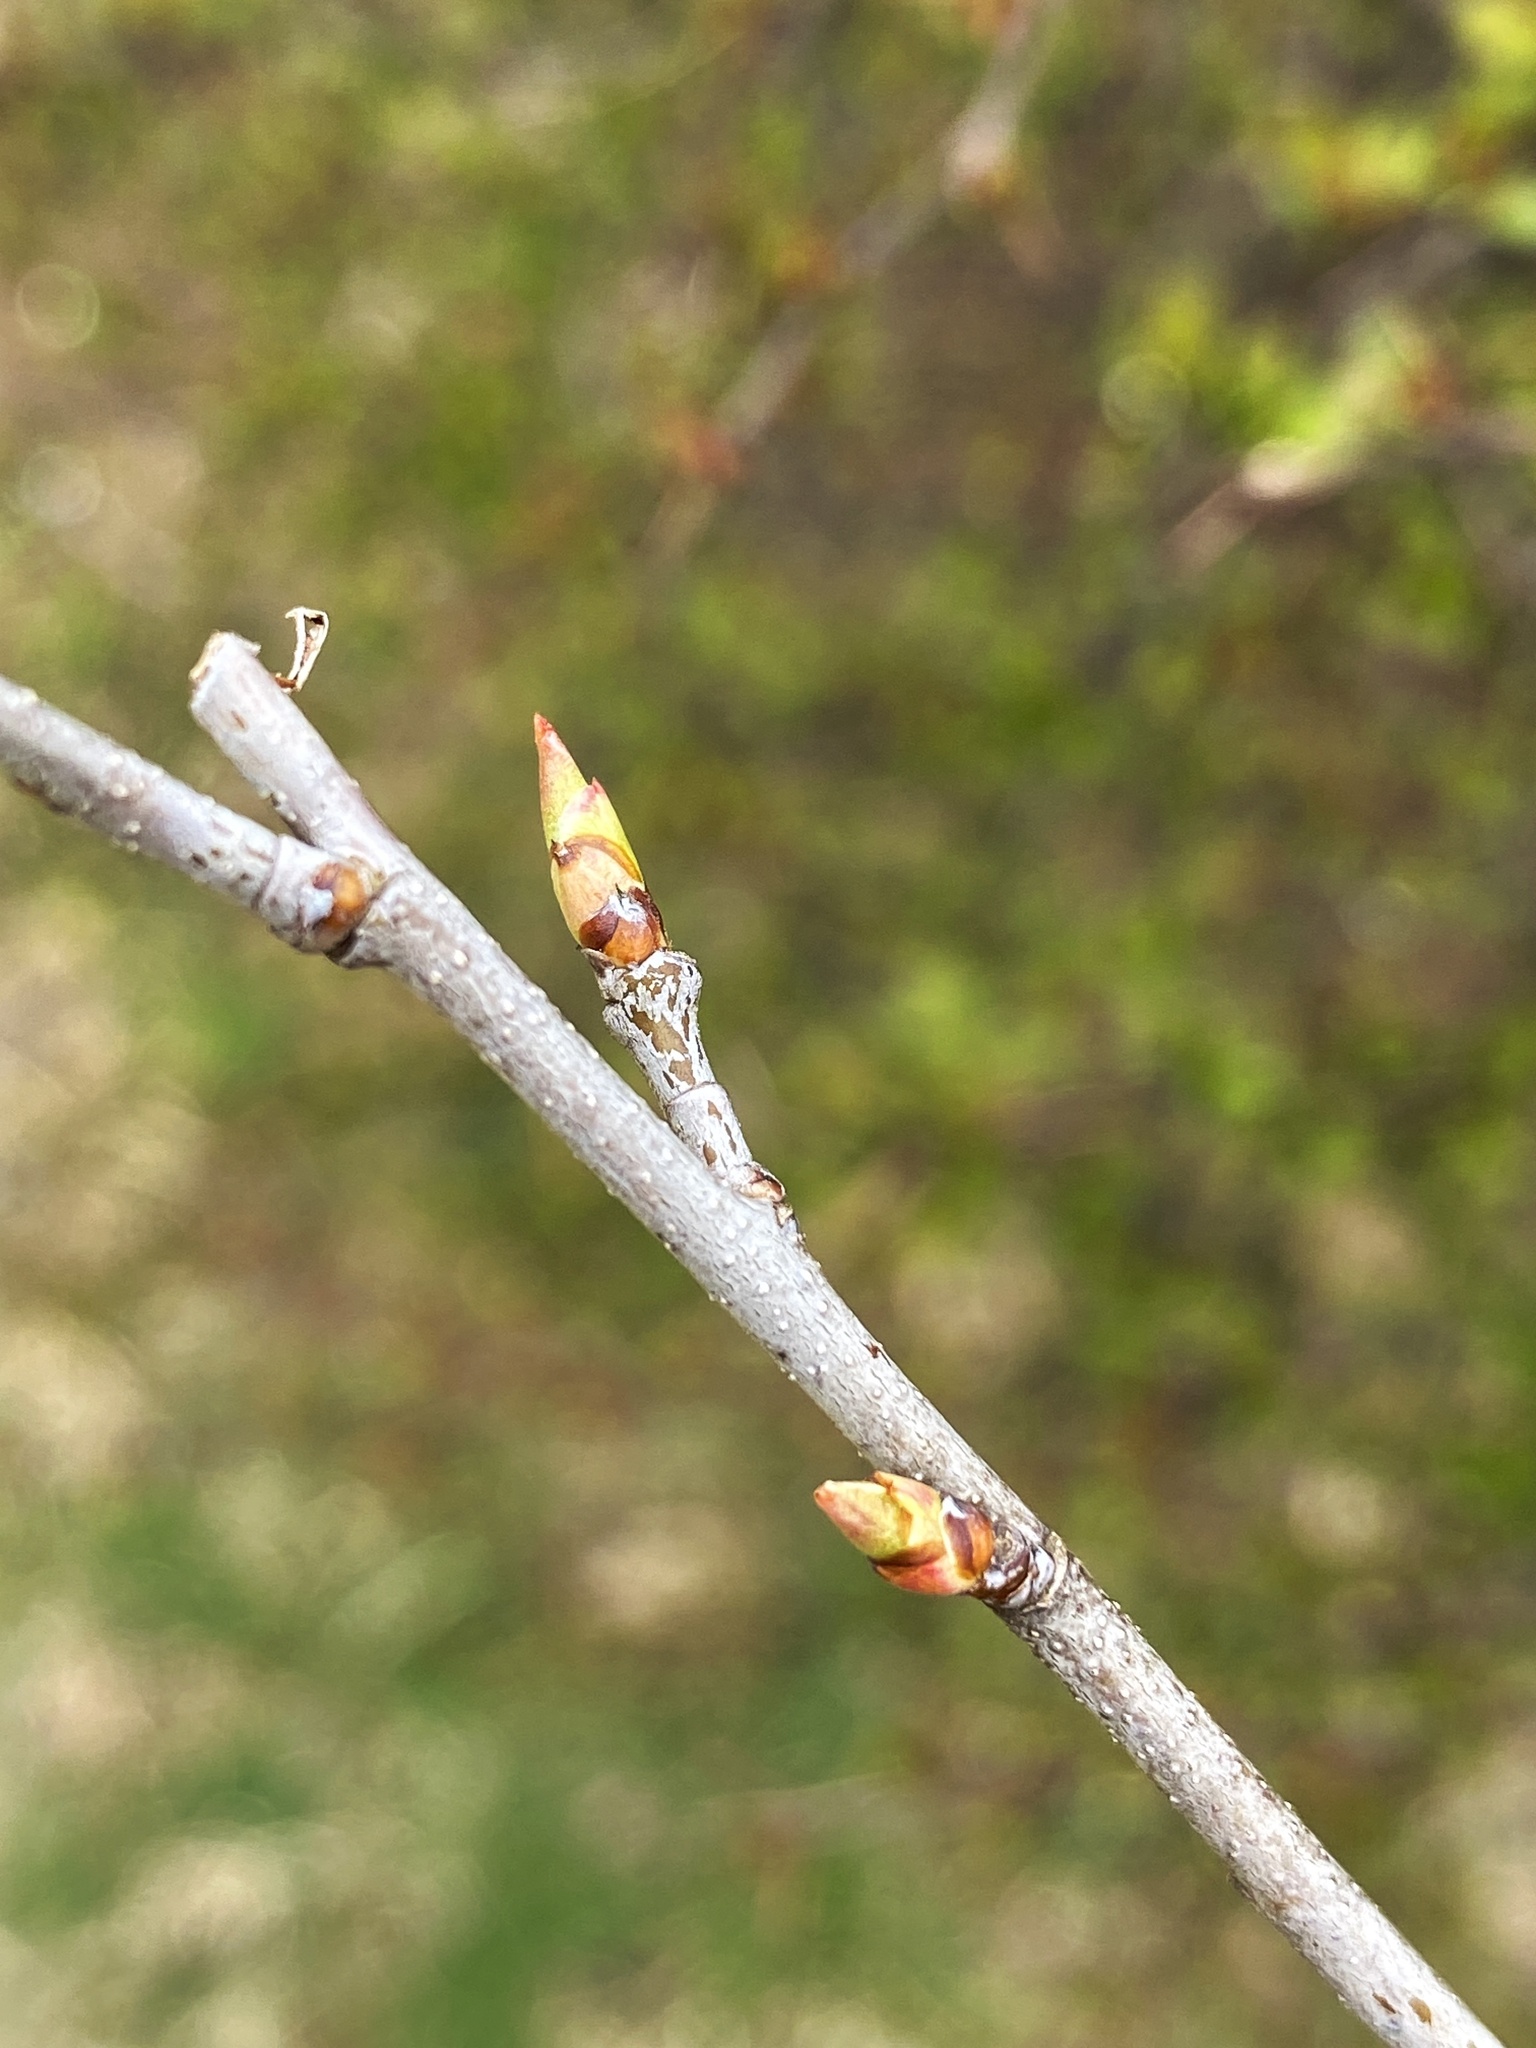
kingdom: Plantae
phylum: Tracheophyta
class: Magnoliopsida
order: Rosales
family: Rosaceae
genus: Prunus
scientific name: Prunus serotina
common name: Black cherry
